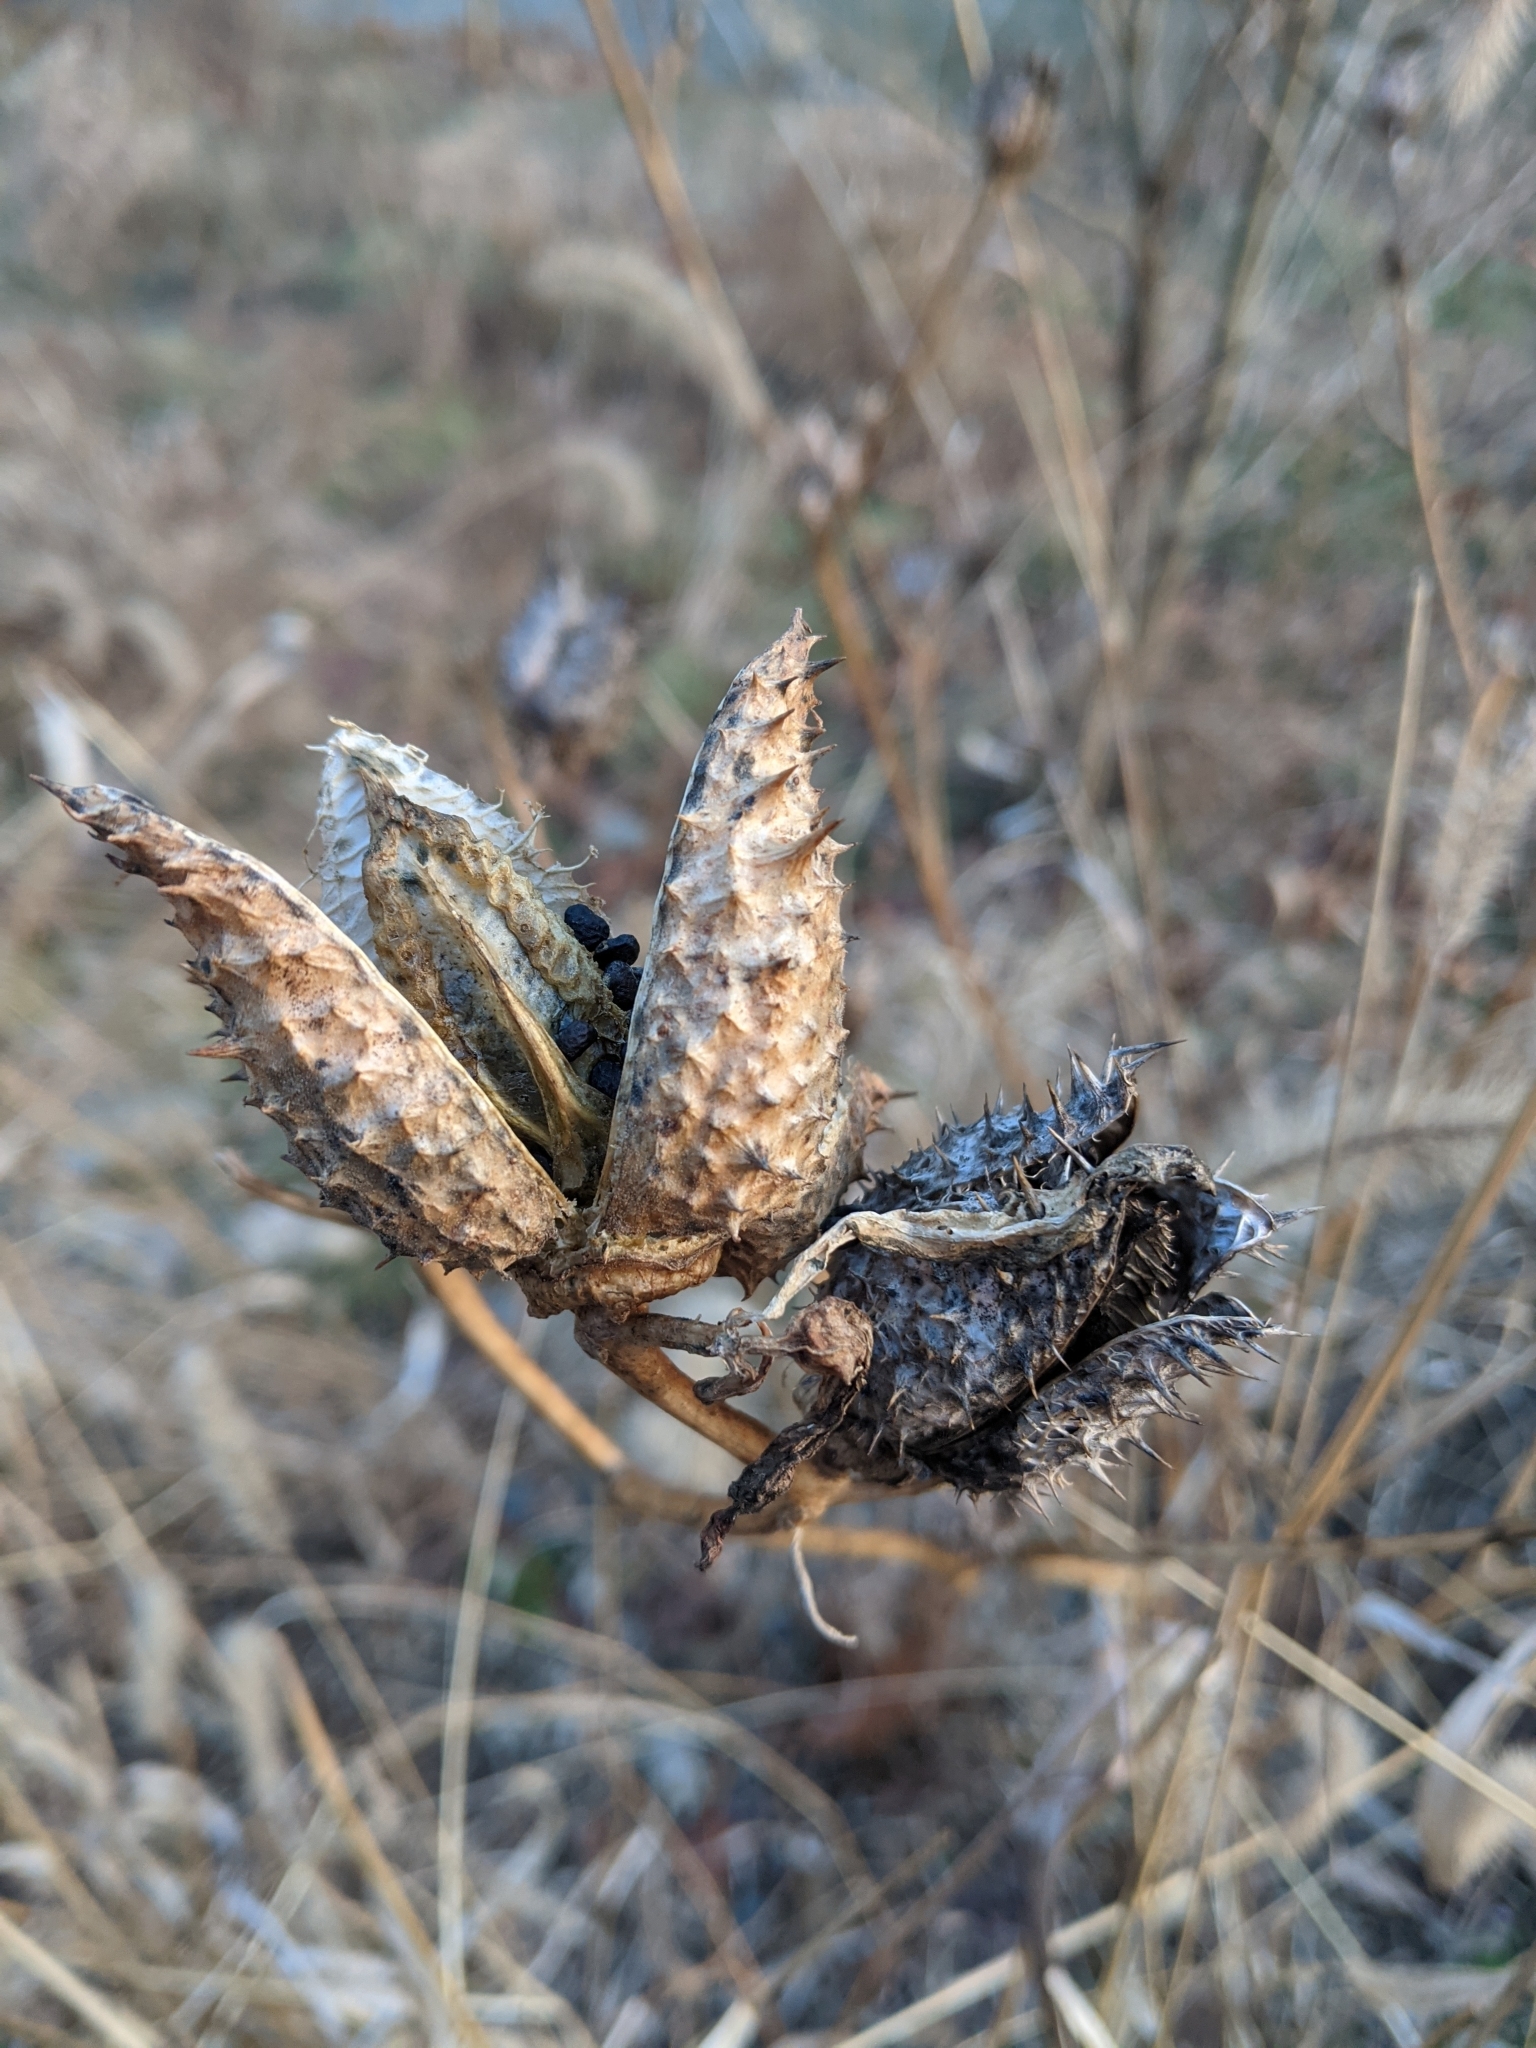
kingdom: Plantae
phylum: Tracheophyta
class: Magnoliopsida
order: Solanales
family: Solanaceae
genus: Datura
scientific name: Datura stramonium
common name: Thorn-apple
